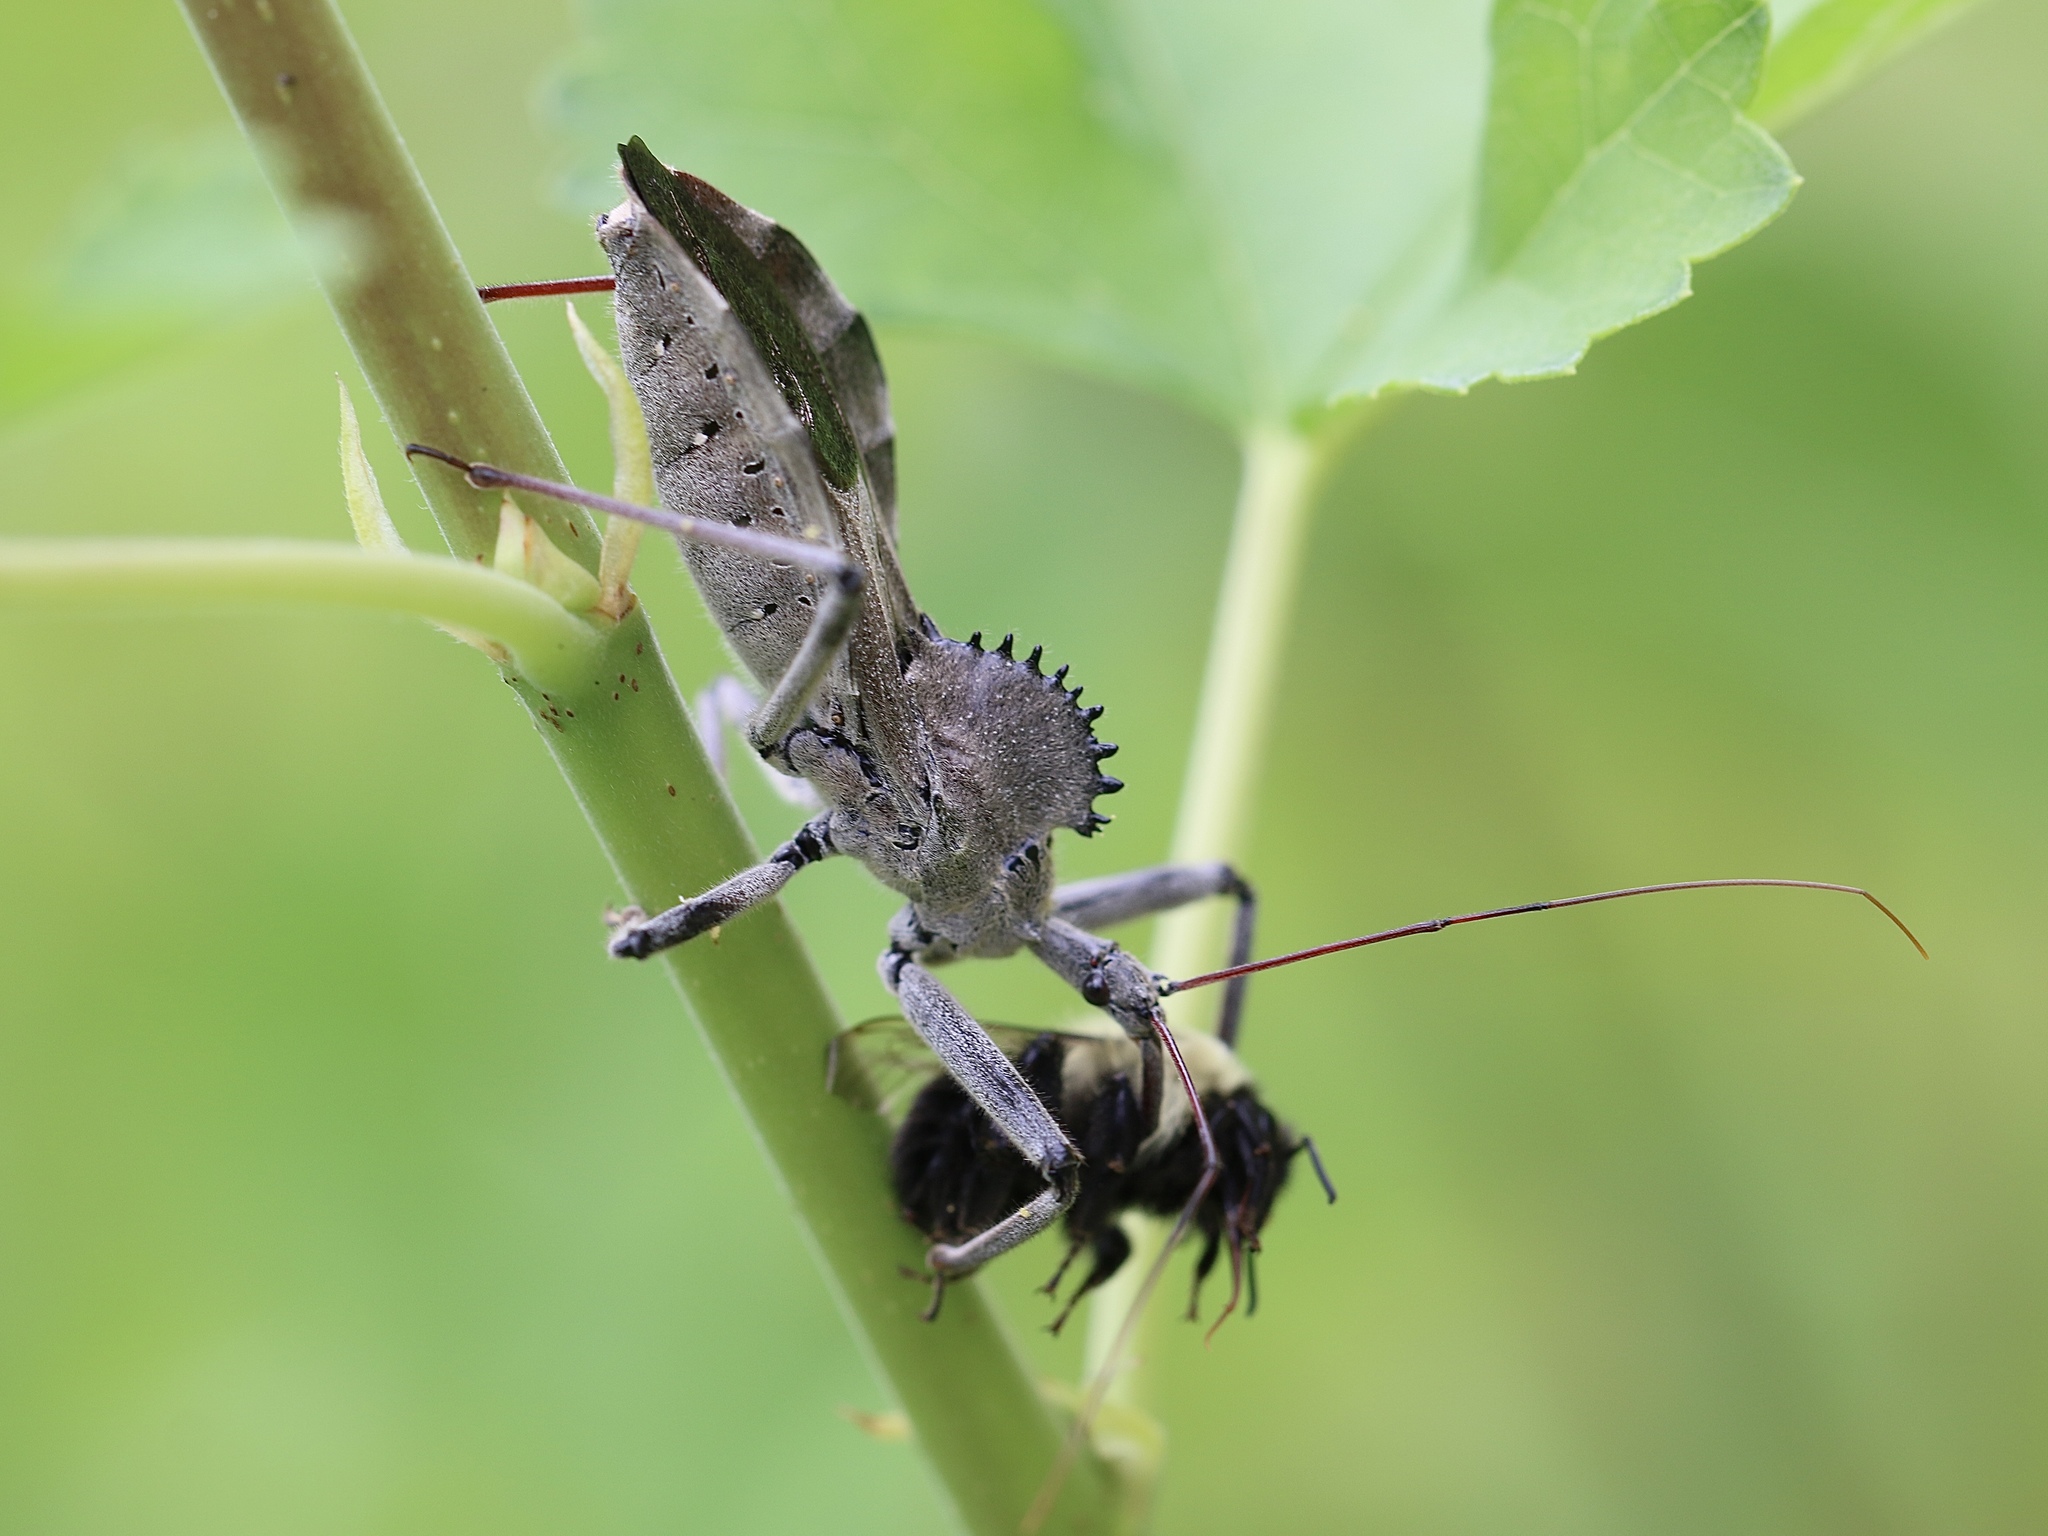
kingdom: Animalia
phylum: Arthropoda
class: Insecta
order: Hemiptera
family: Reduviidae
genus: Arilus
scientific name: Arilus cristatus
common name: North american wheel bug
